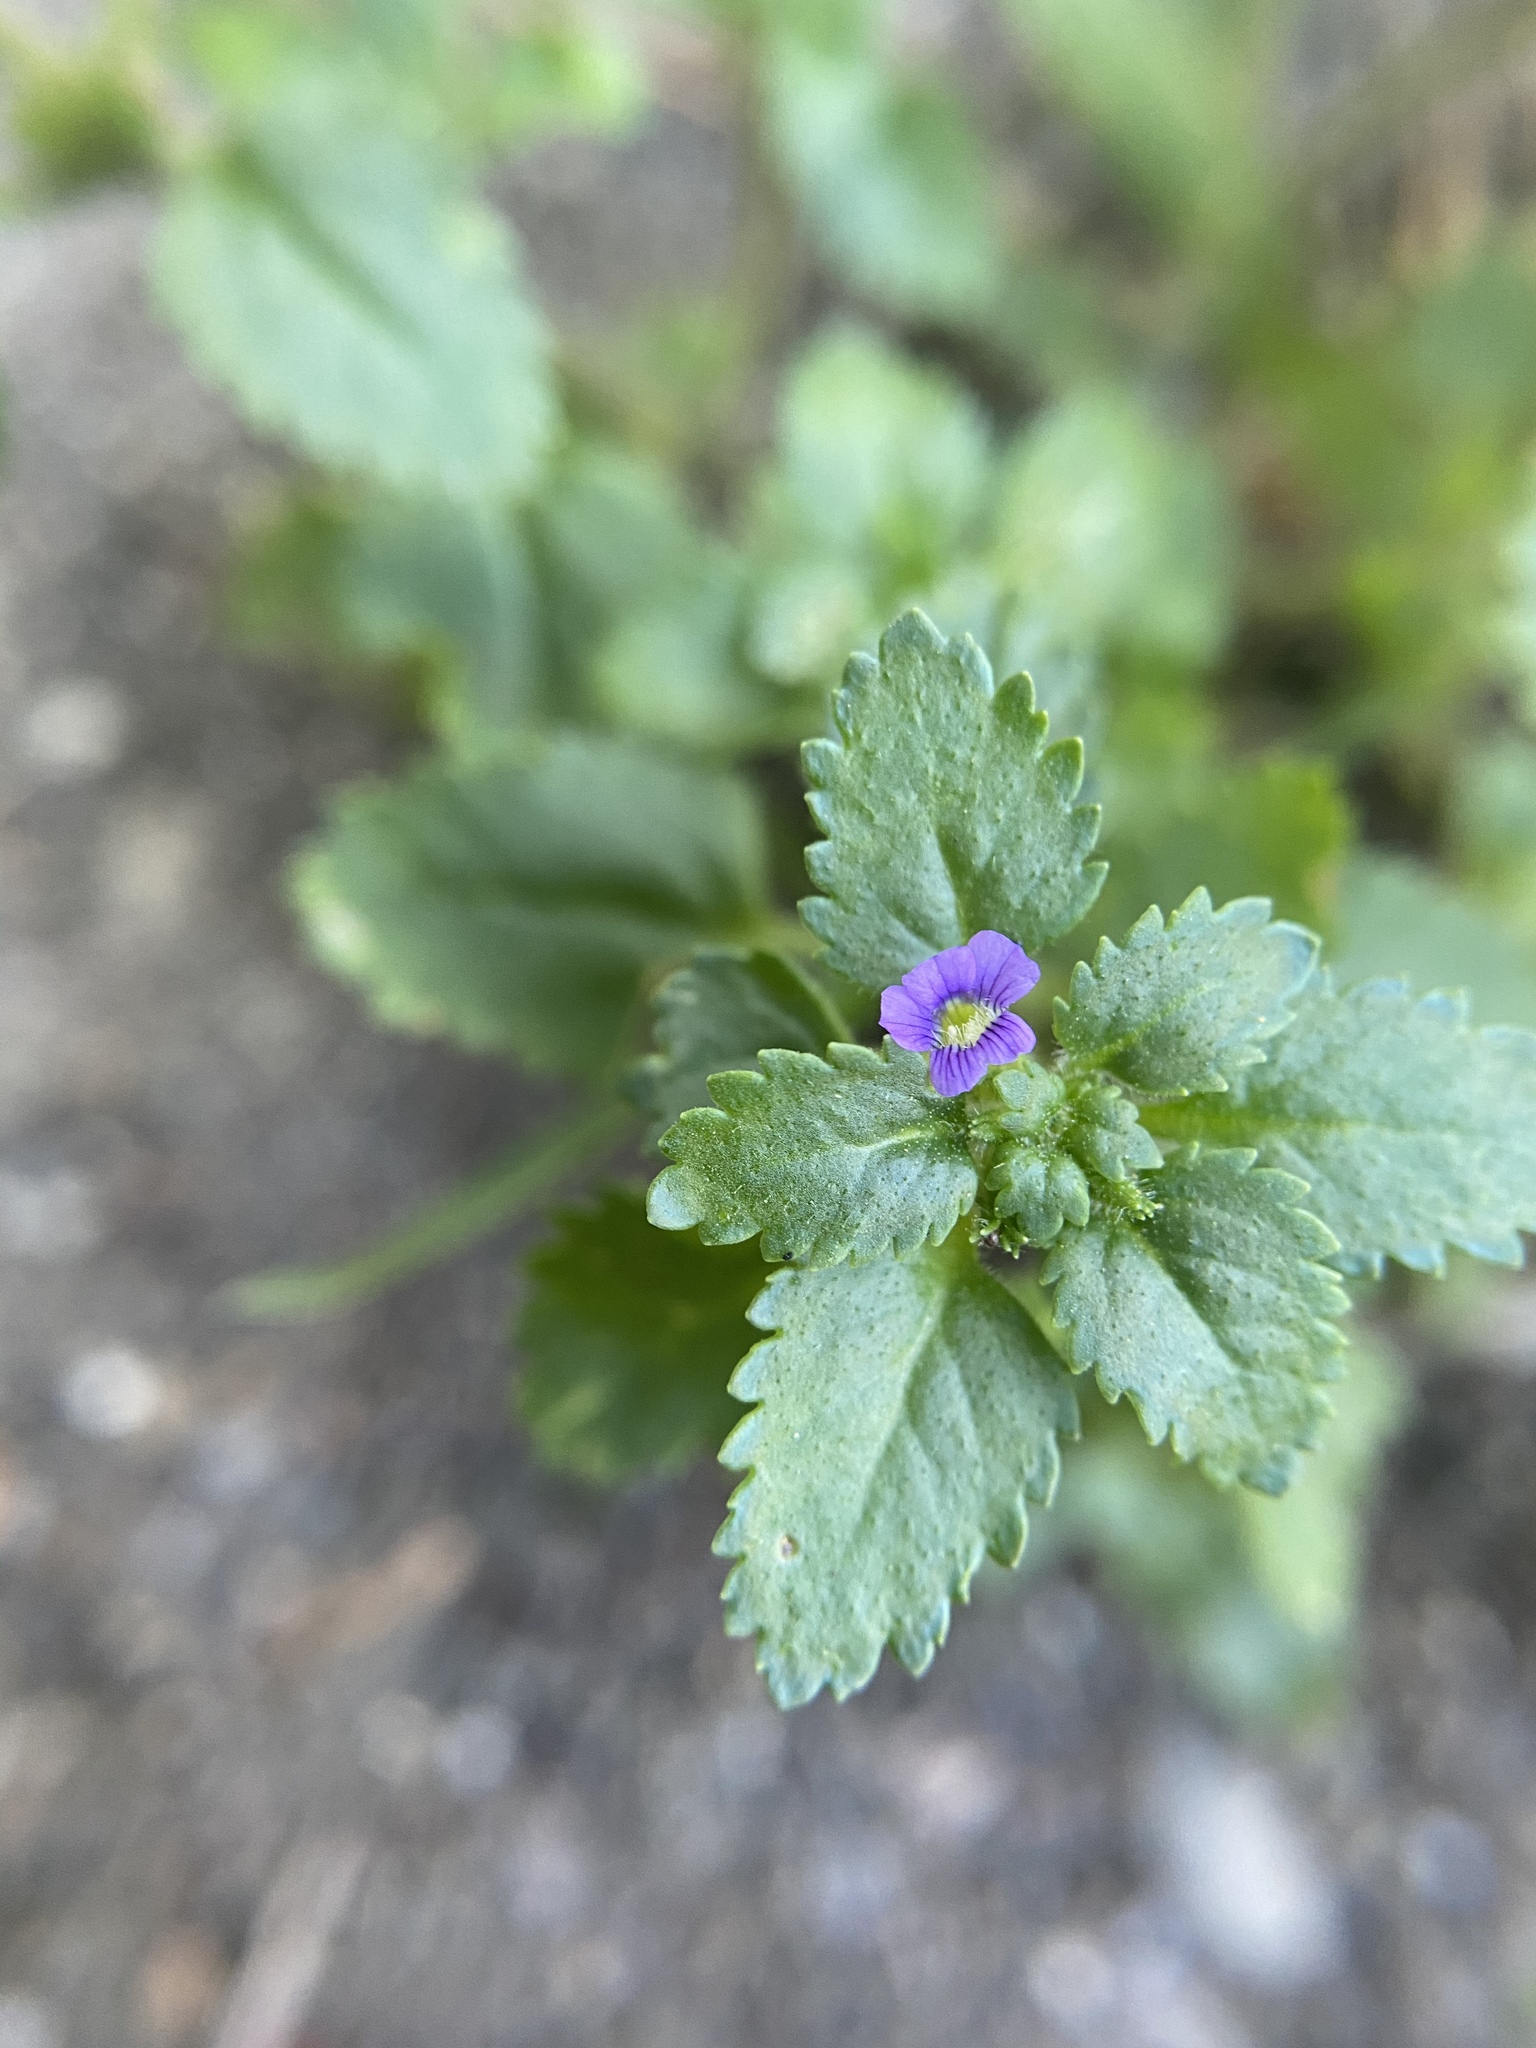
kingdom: Plantae
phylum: Tracheophyta
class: Magnoliopsida
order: Lamiales
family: Plantaginaceae
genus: Stemodia
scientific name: Stemodia verticillata
